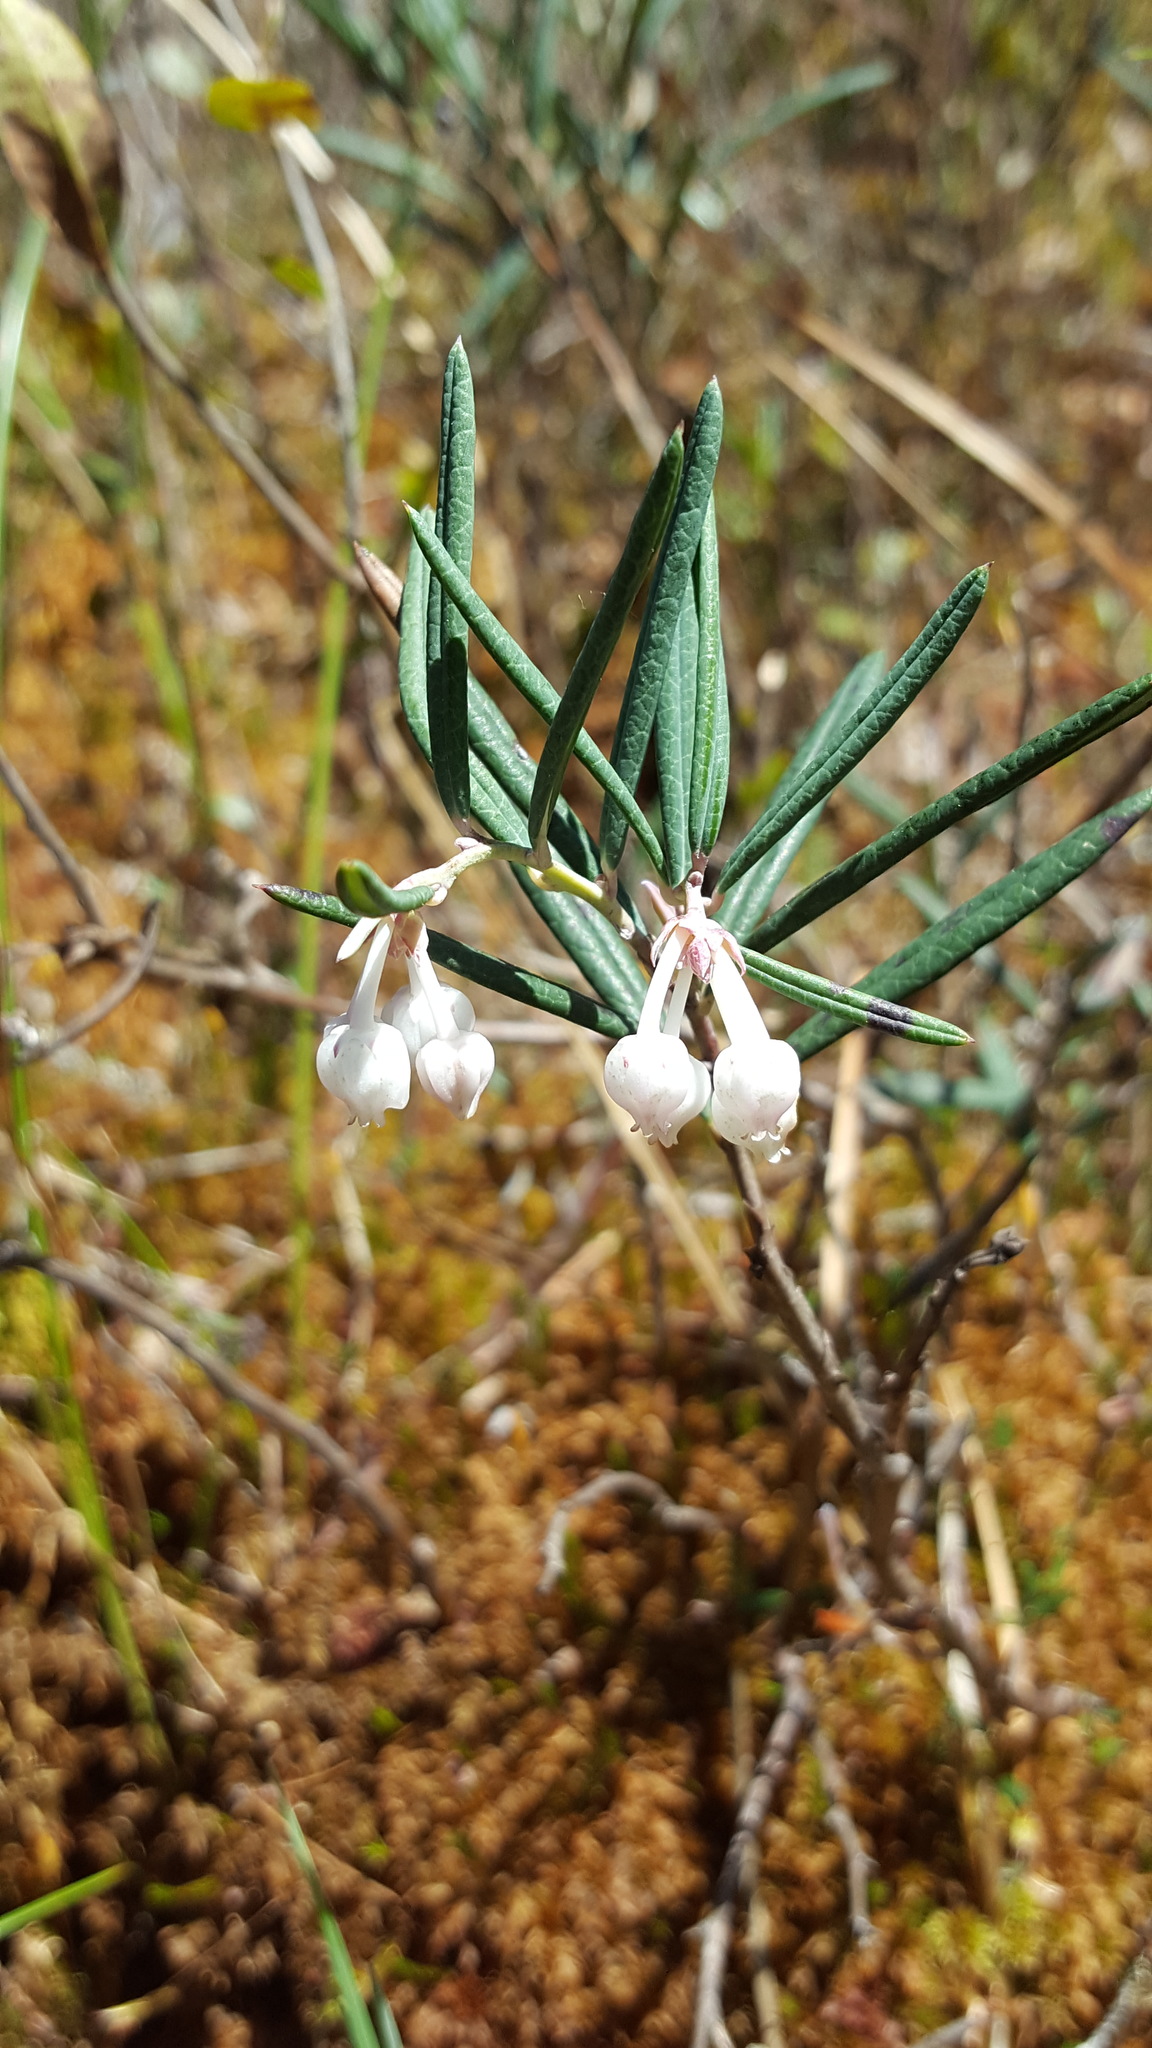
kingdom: Plantae
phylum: Tracheophyta
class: Magnoliopsida
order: Ericales
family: Ericaceae
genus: Andromeda
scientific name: Andromeda polifolia
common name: Bog-rosemary
